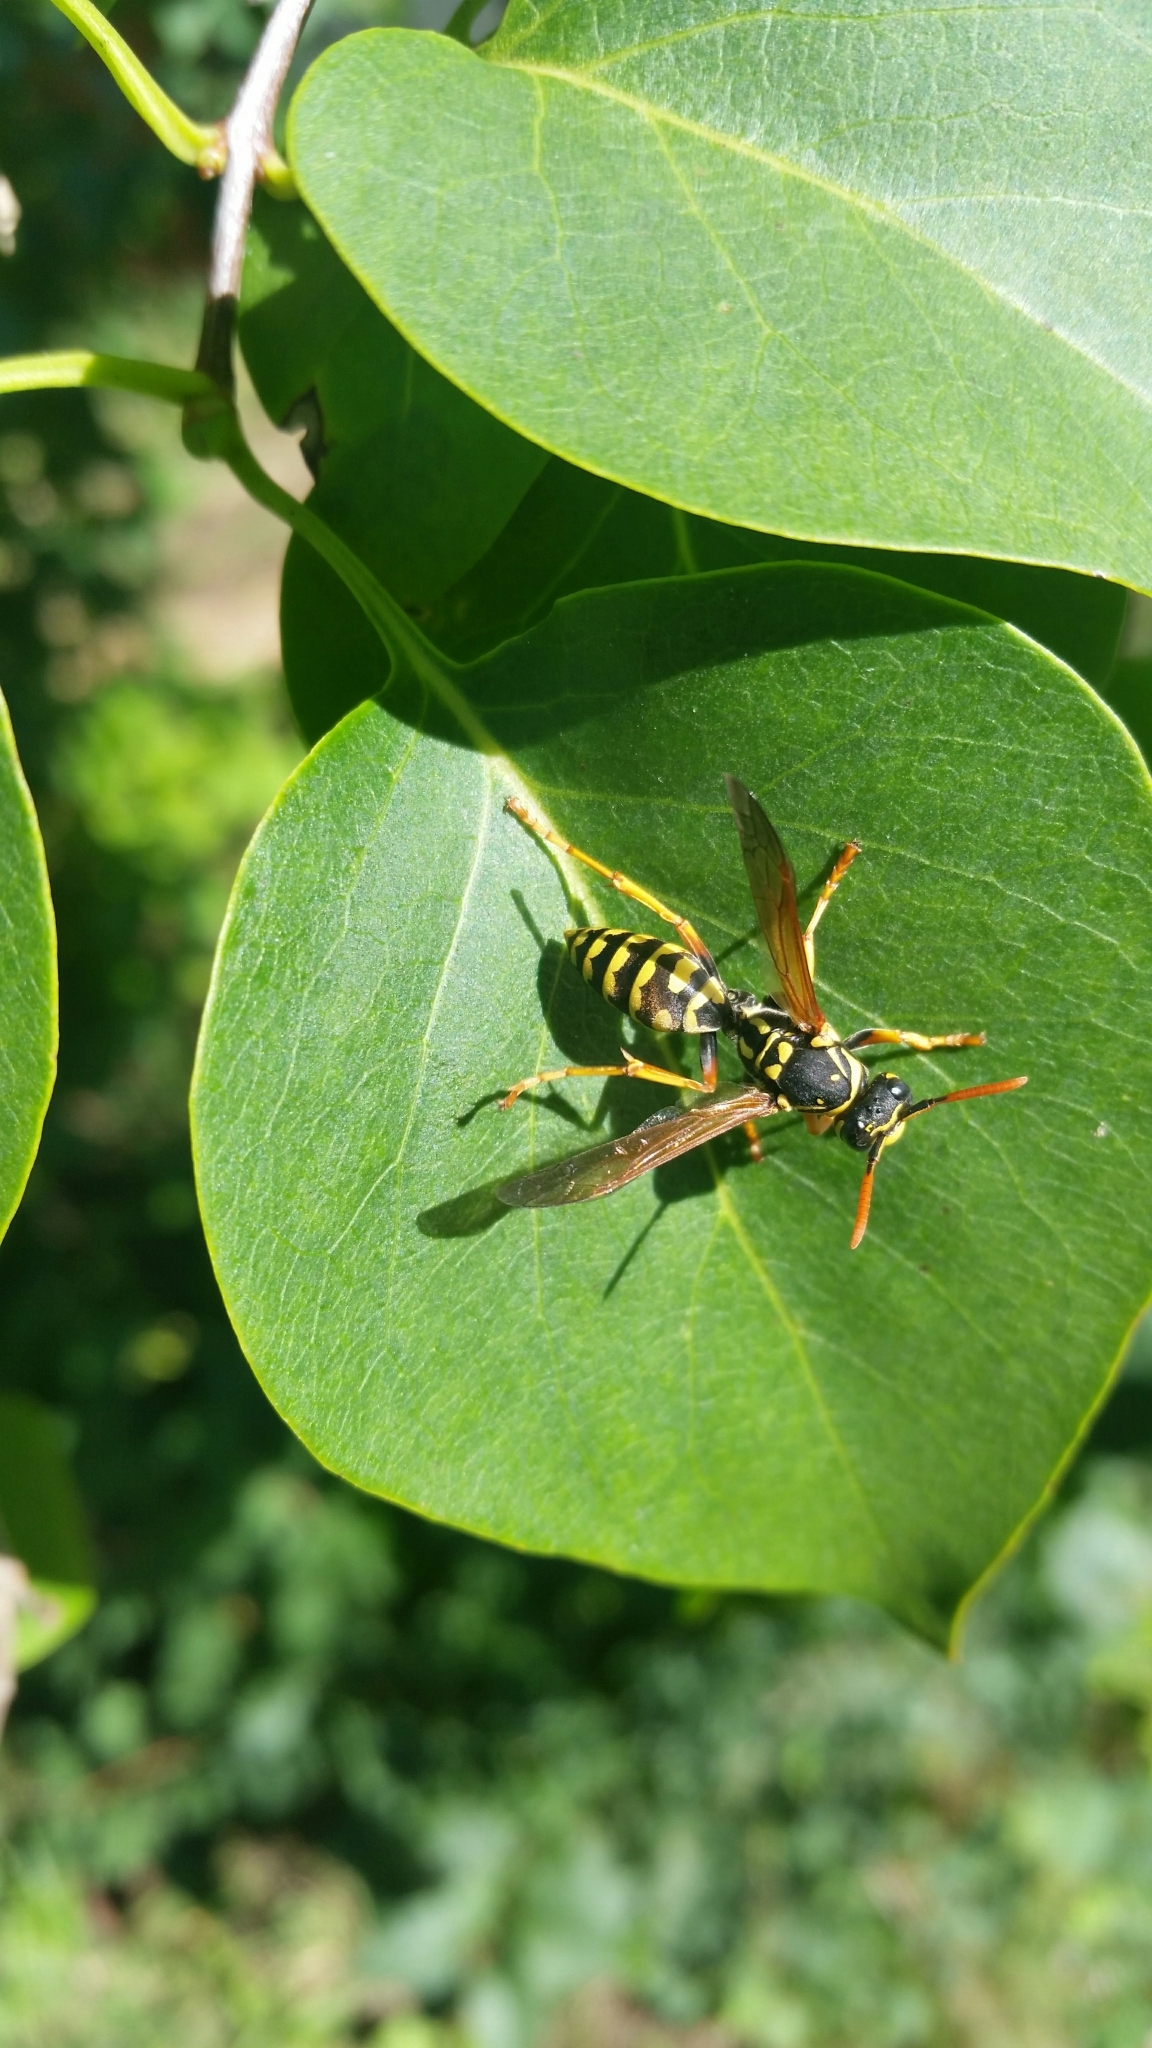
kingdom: Animalia
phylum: Arthropoda
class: Insecta
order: Hymenoptera
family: Eumenidae
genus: Polistes
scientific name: Polistes dominula
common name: Paper wasp
